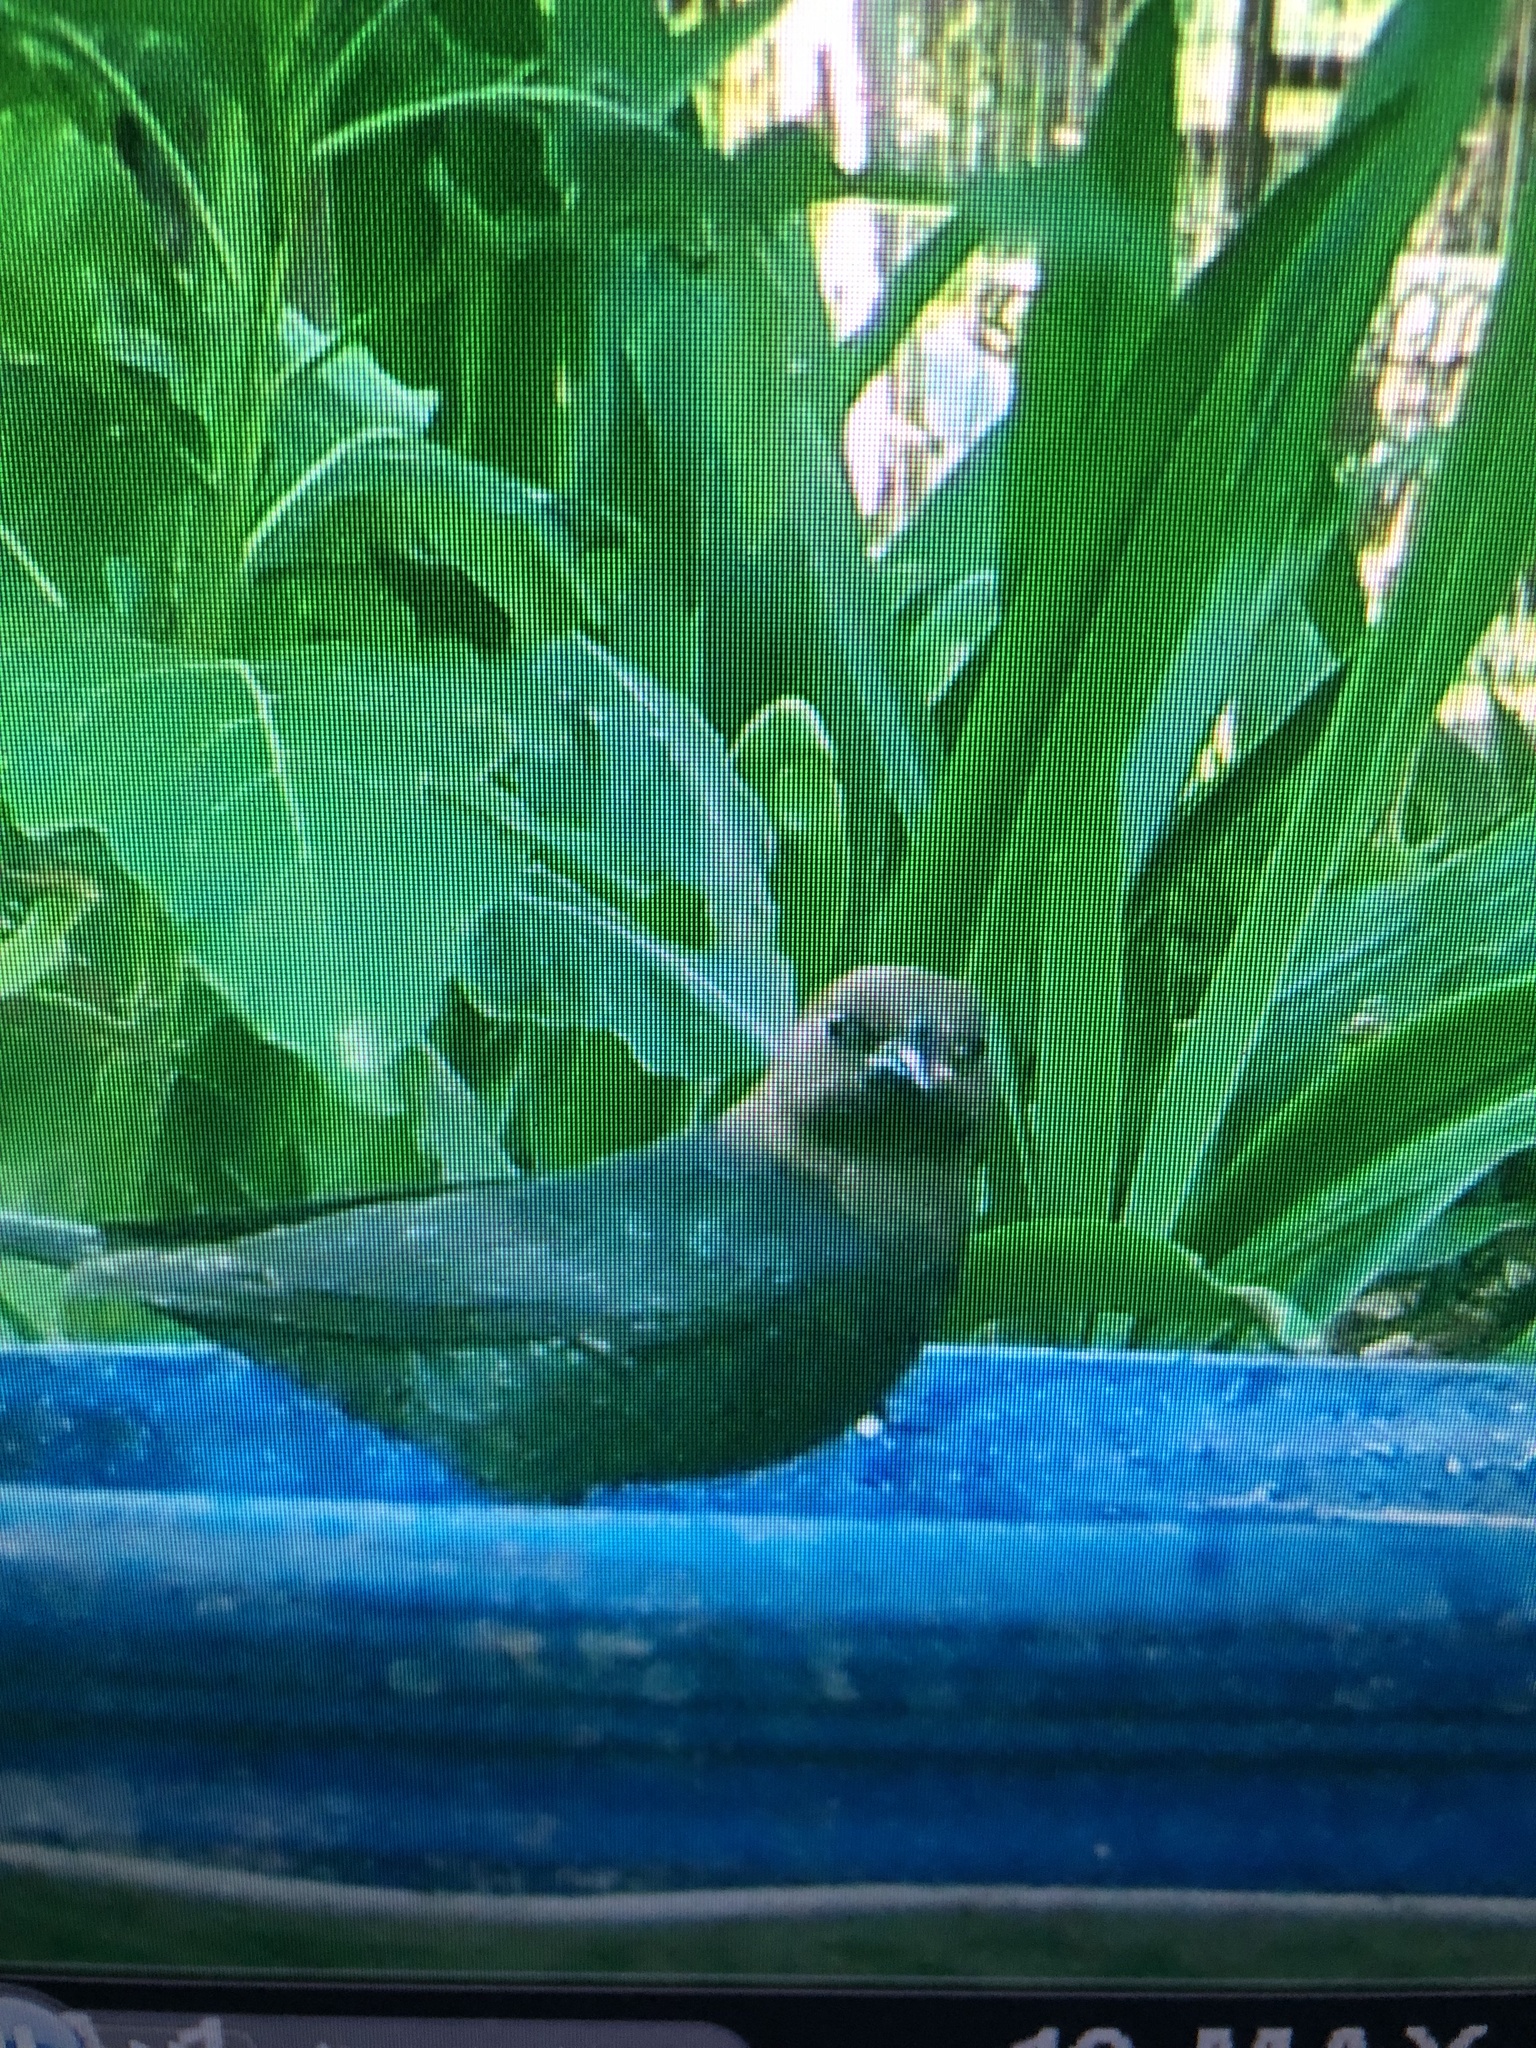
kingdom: Animalia
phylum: Chordata
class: Aves
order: Passeriformes
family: Icteridae
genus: Molothrus
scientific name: Molothrus ater
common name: Brown-headed cowbird
